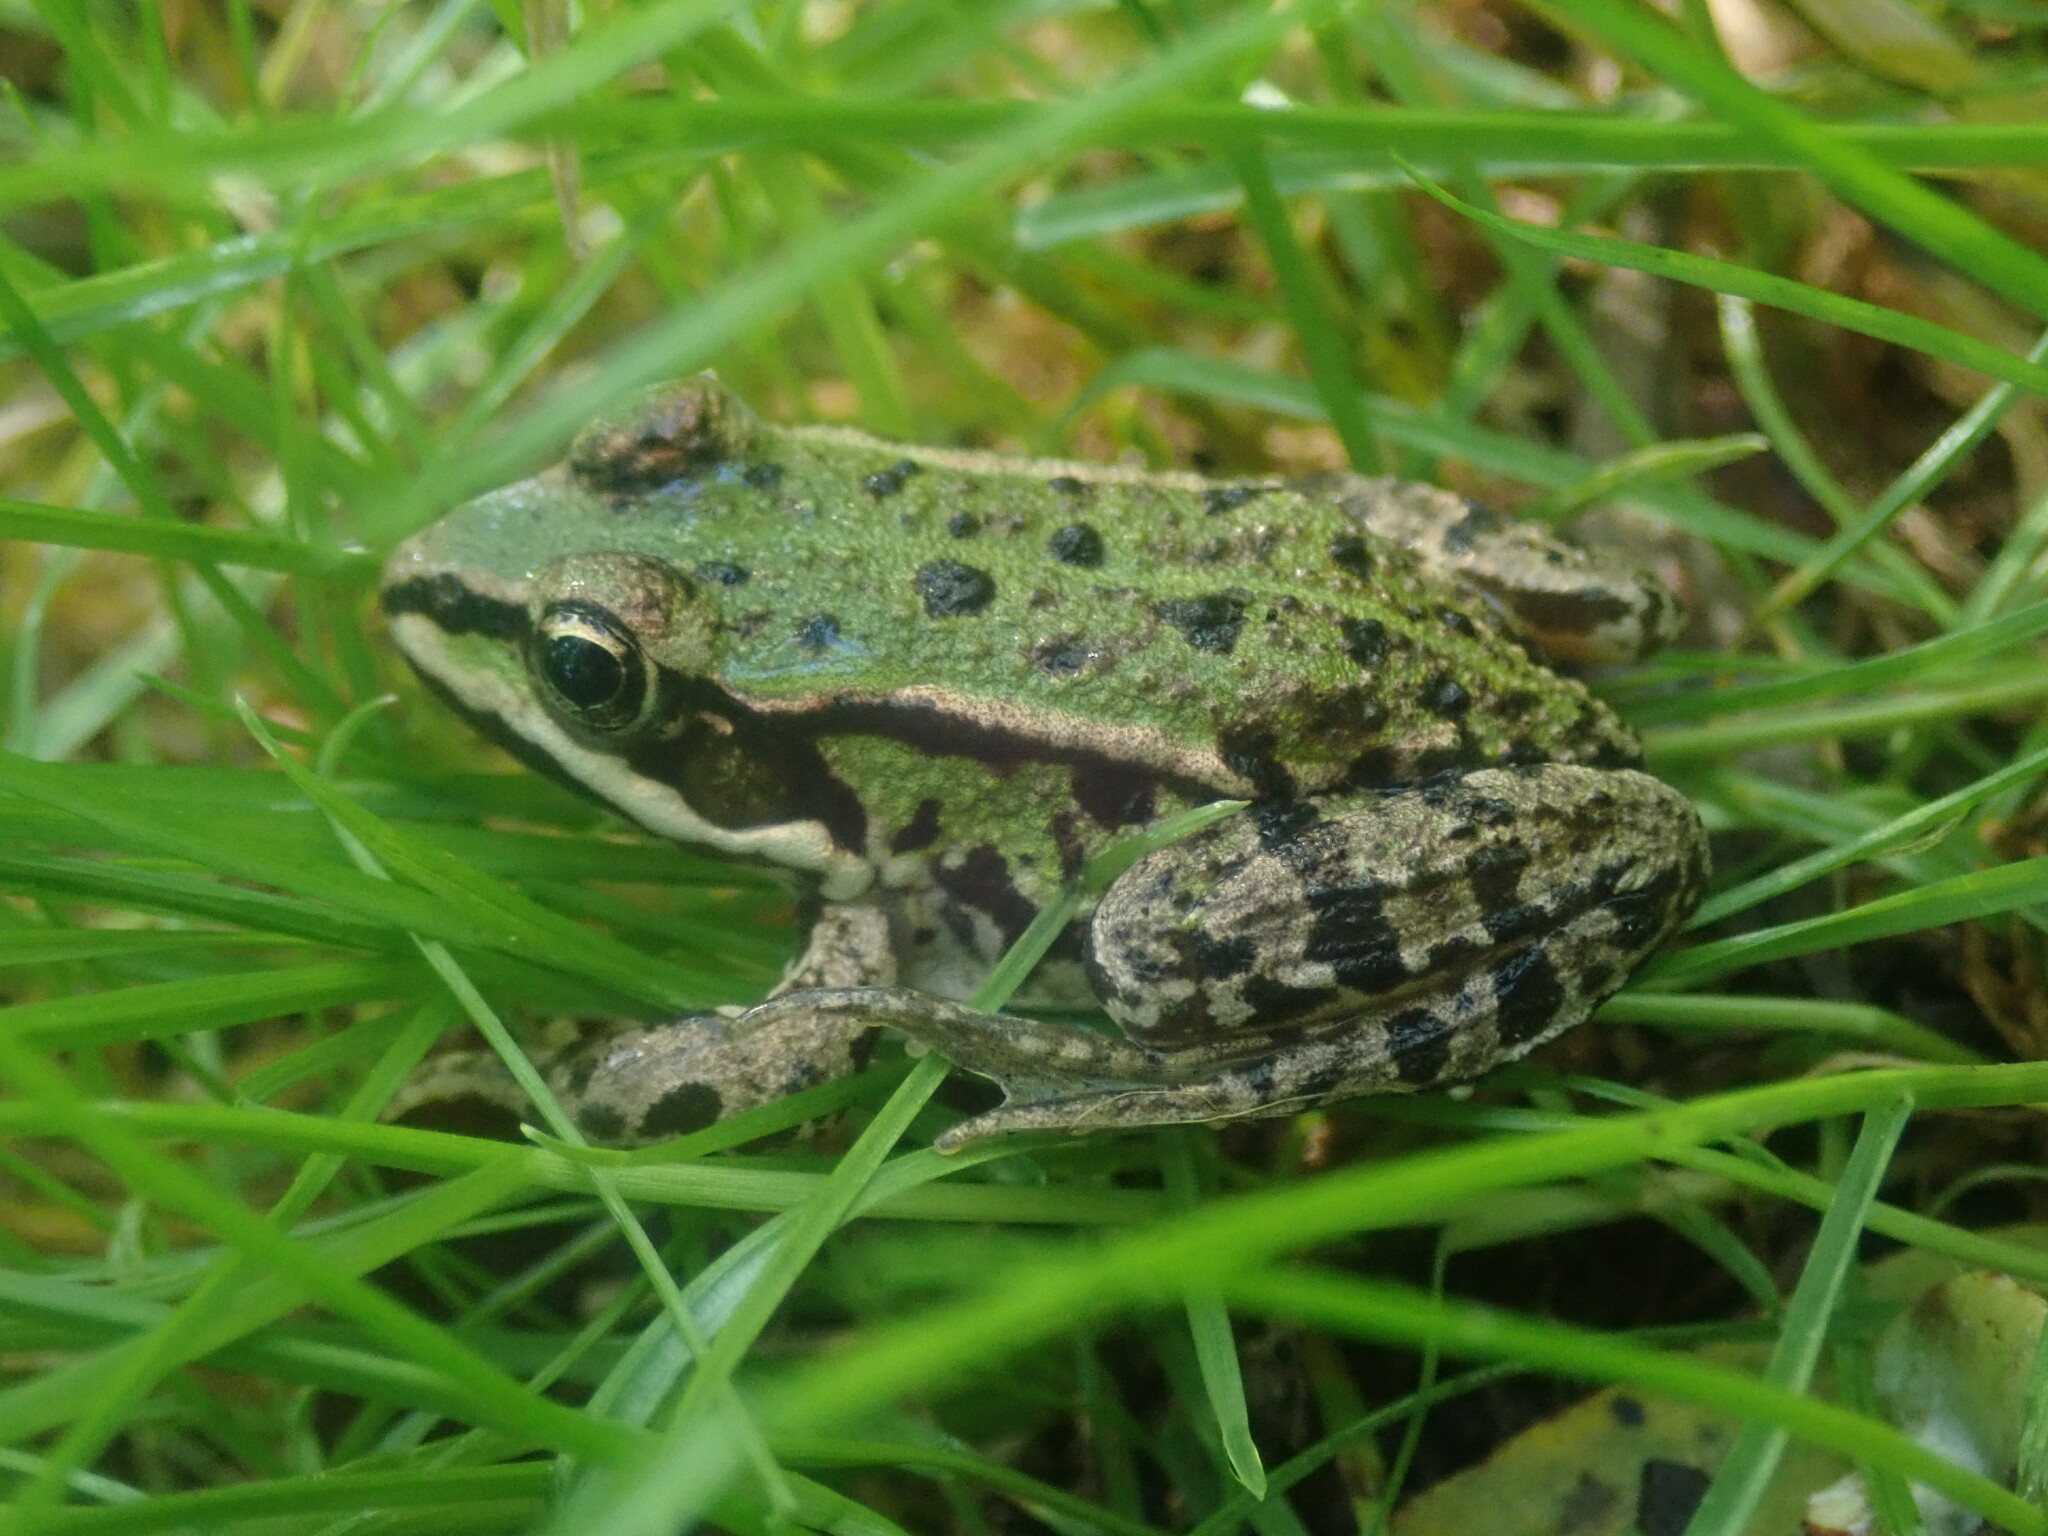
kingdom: Animalia
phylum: Chordata
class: Amphibia
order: Anura
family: Ranidae
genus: Pelophylax
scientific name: Pelophylax ridibundus
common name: Marsh frog
